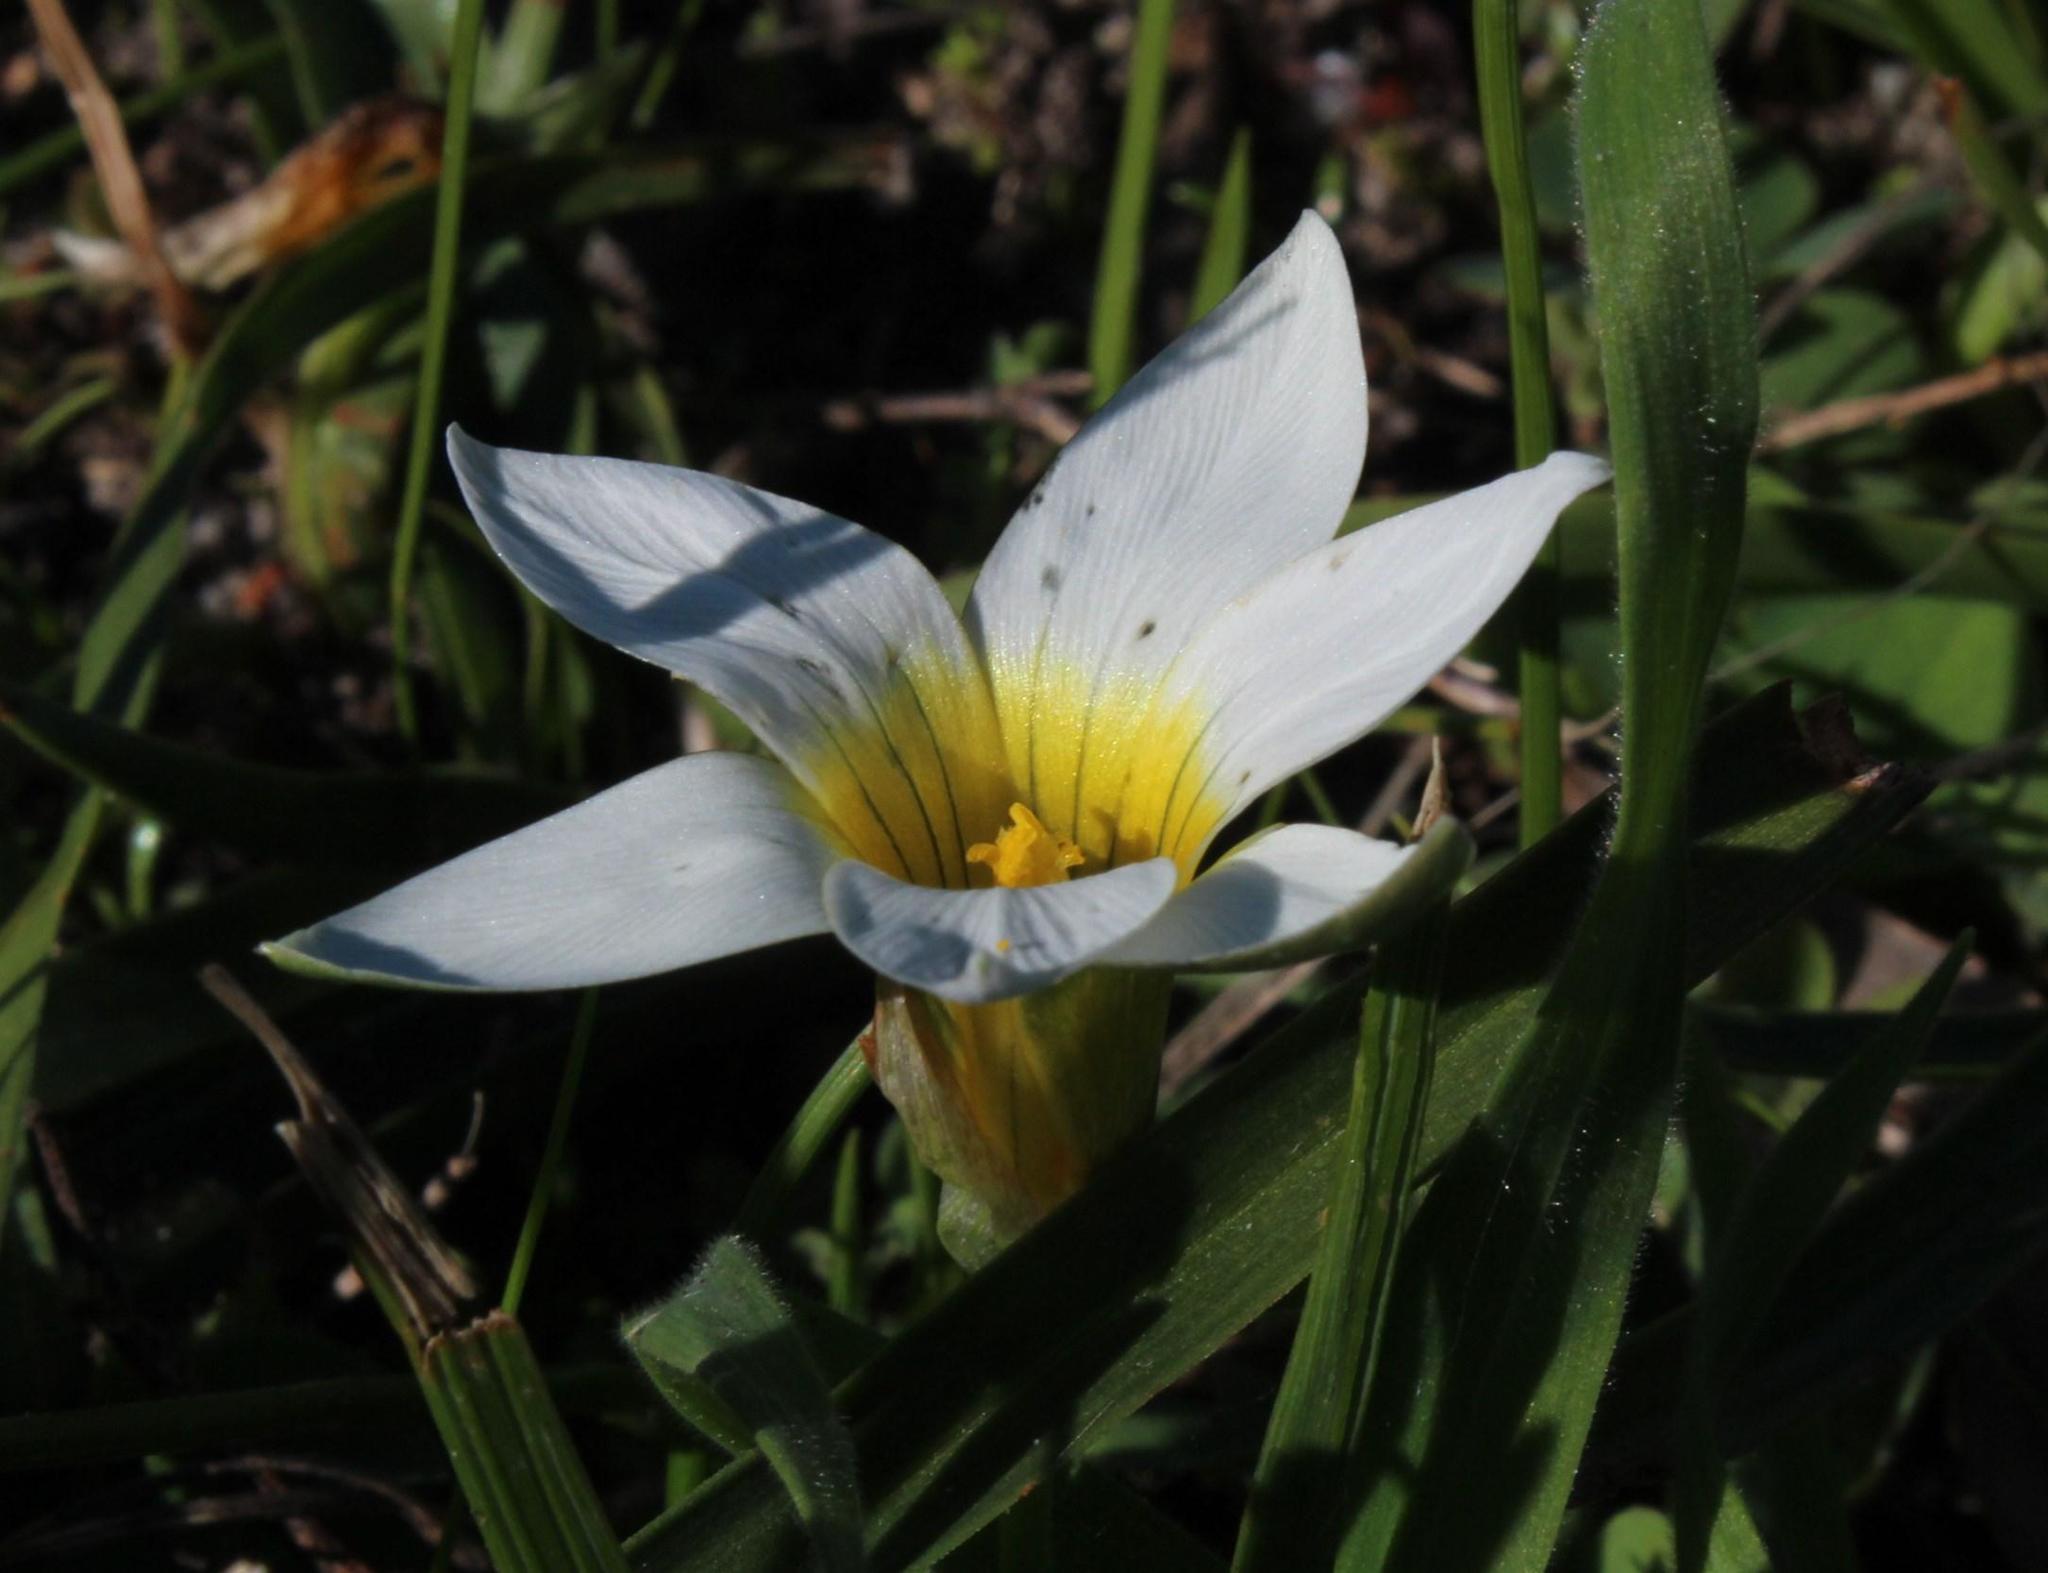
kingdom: Plantae
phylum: Tracheophyta
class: Liliopsida
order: Asparagales
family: Iridaceae
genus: Romulea
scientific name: Romulea flava
